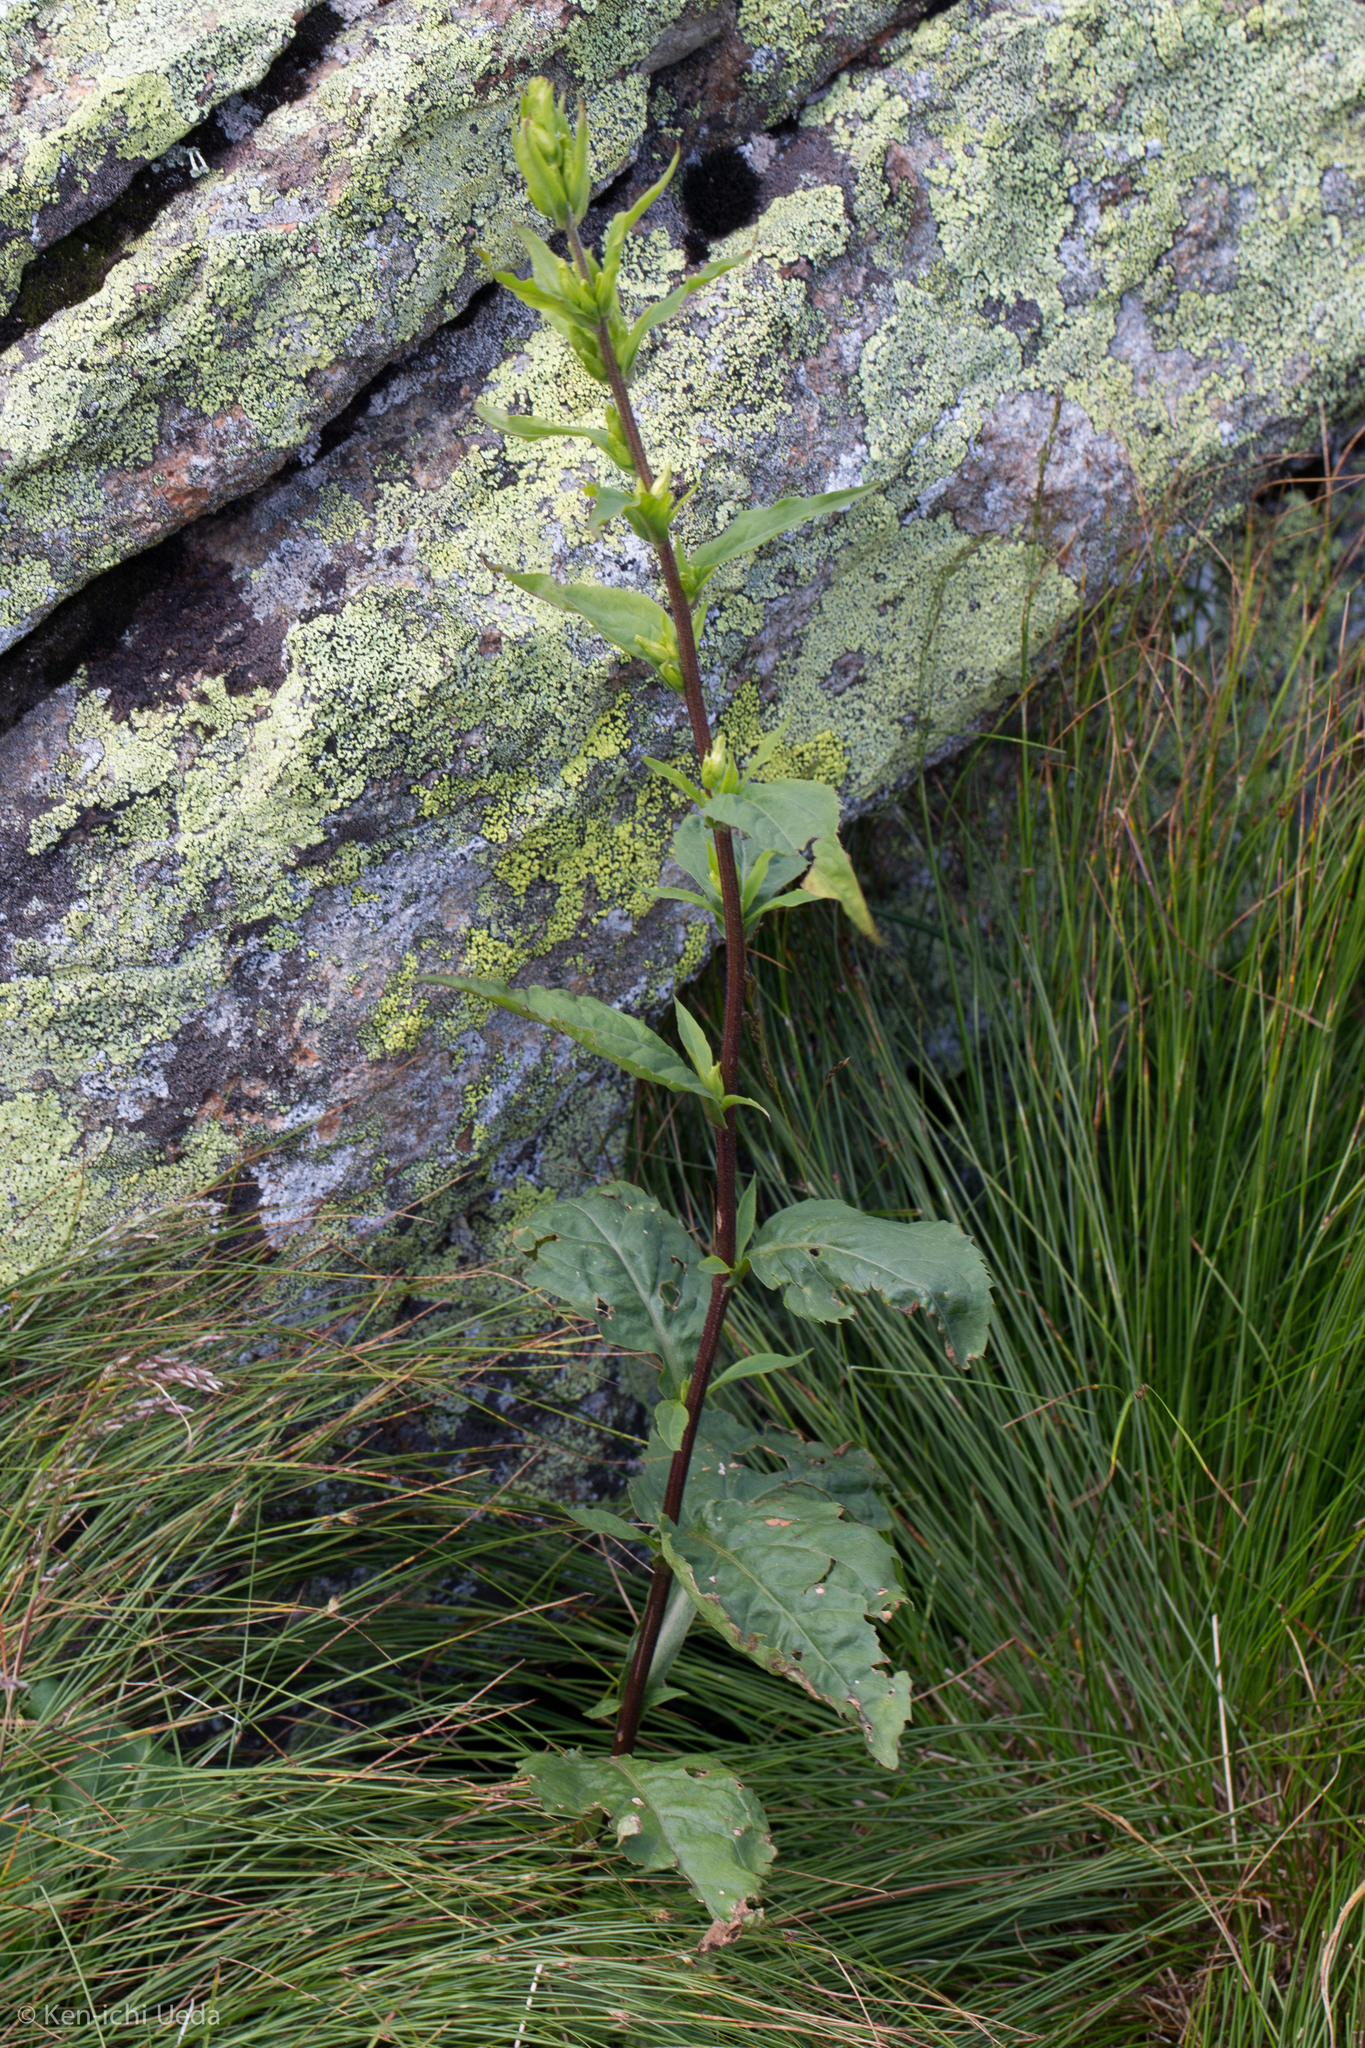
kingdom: Plantae
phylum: Tracheophyta
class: Magnoliopsida
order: Asterales
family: Asteraceae
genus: Solidago
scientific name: Solidago macrophylla
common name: Large-leaved goldenrod
